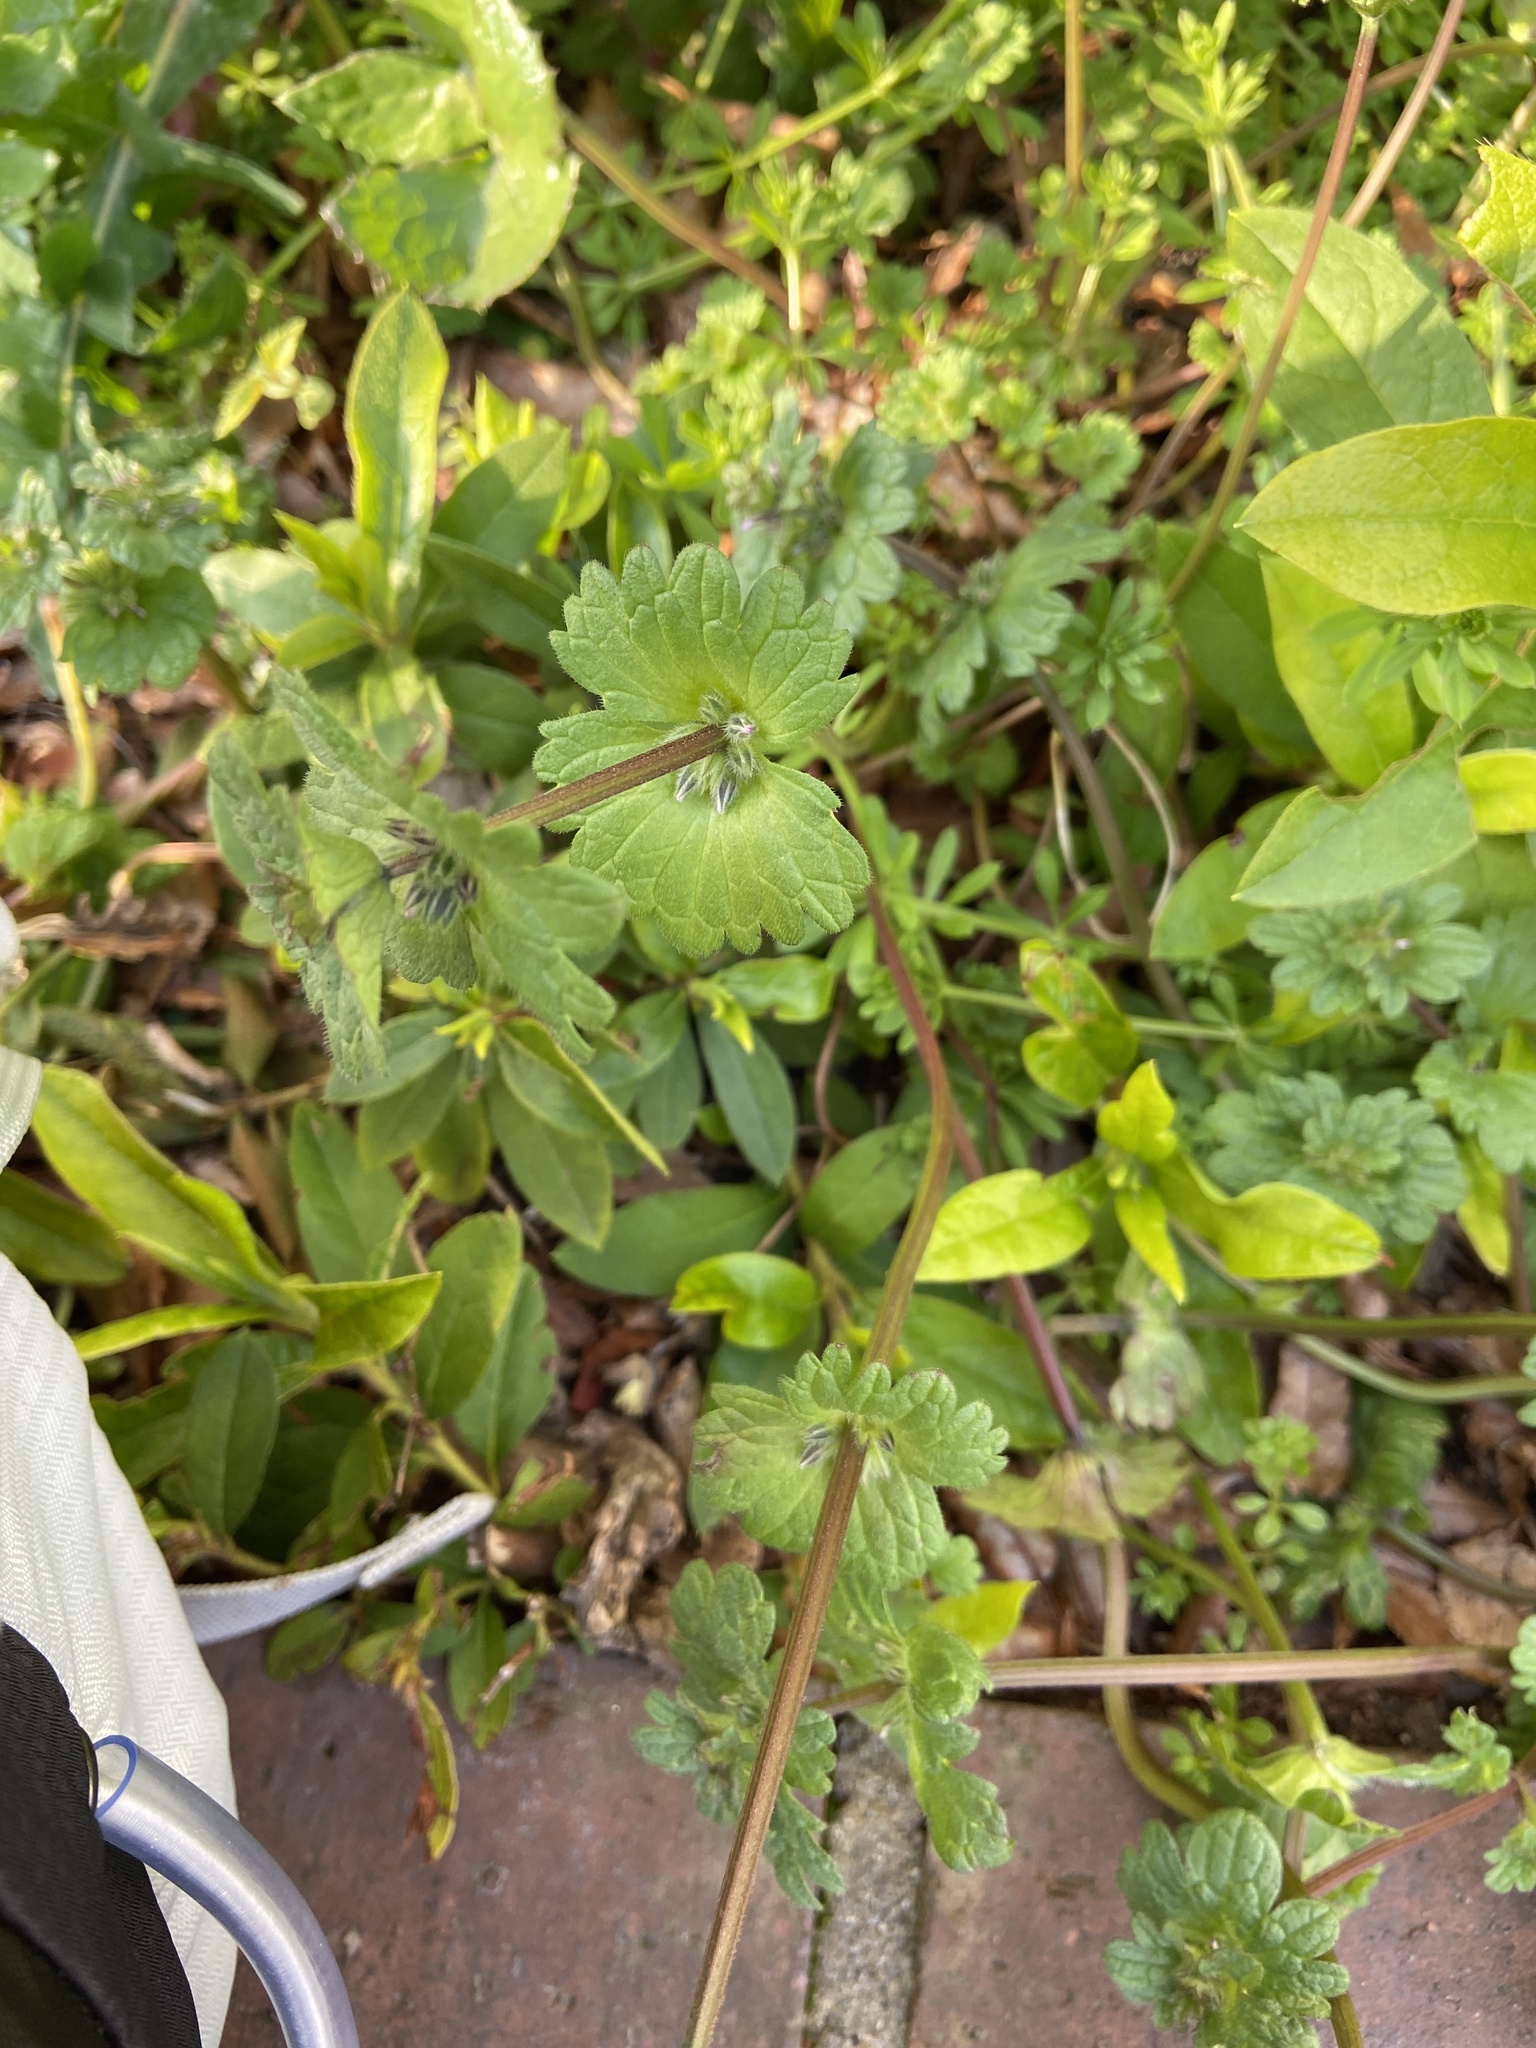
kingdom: Plantae
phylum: Tracheophyta
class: Magnoliopsida
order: Lamiales
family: Lamiaceae
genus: Lamium
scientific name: Lamium amplexicaule
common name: Henbit dead-nettle
